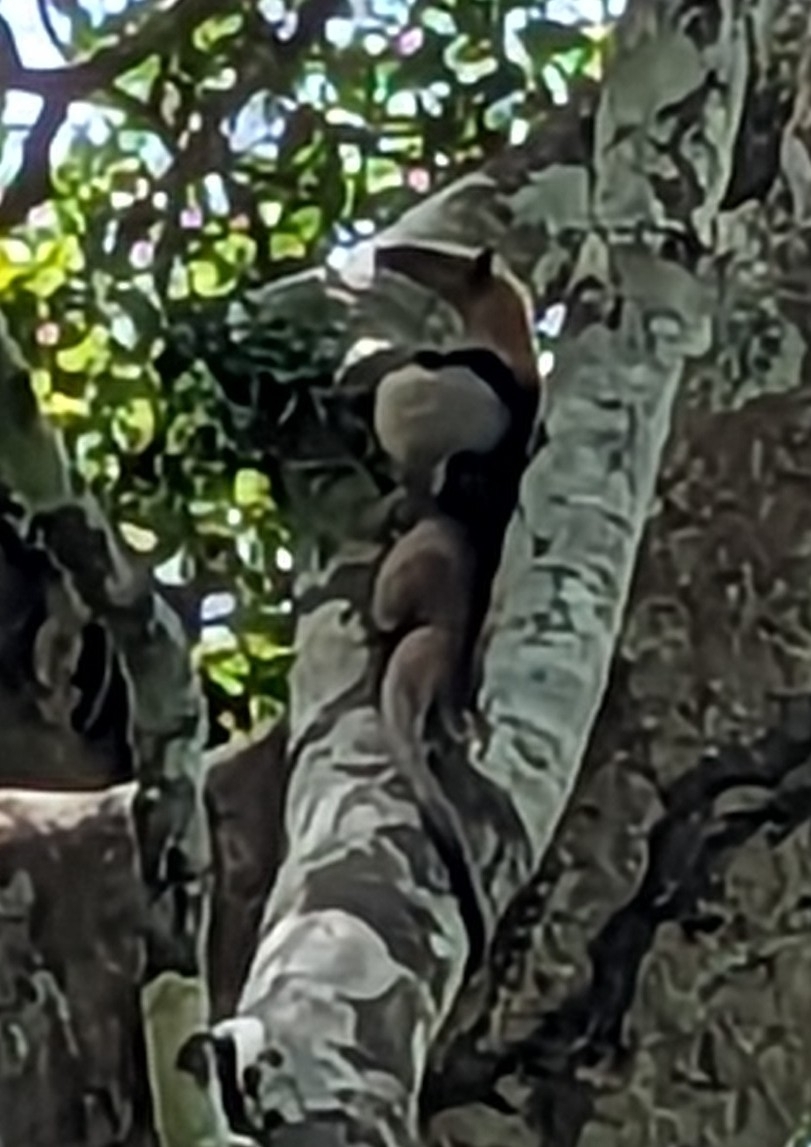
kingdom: Animalia
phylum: Chordata
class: Mammalia
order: Pilosa
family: Myrmecophagidae
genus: Tamandua
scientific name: Tamandua mexicana
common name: Northern tamandua
